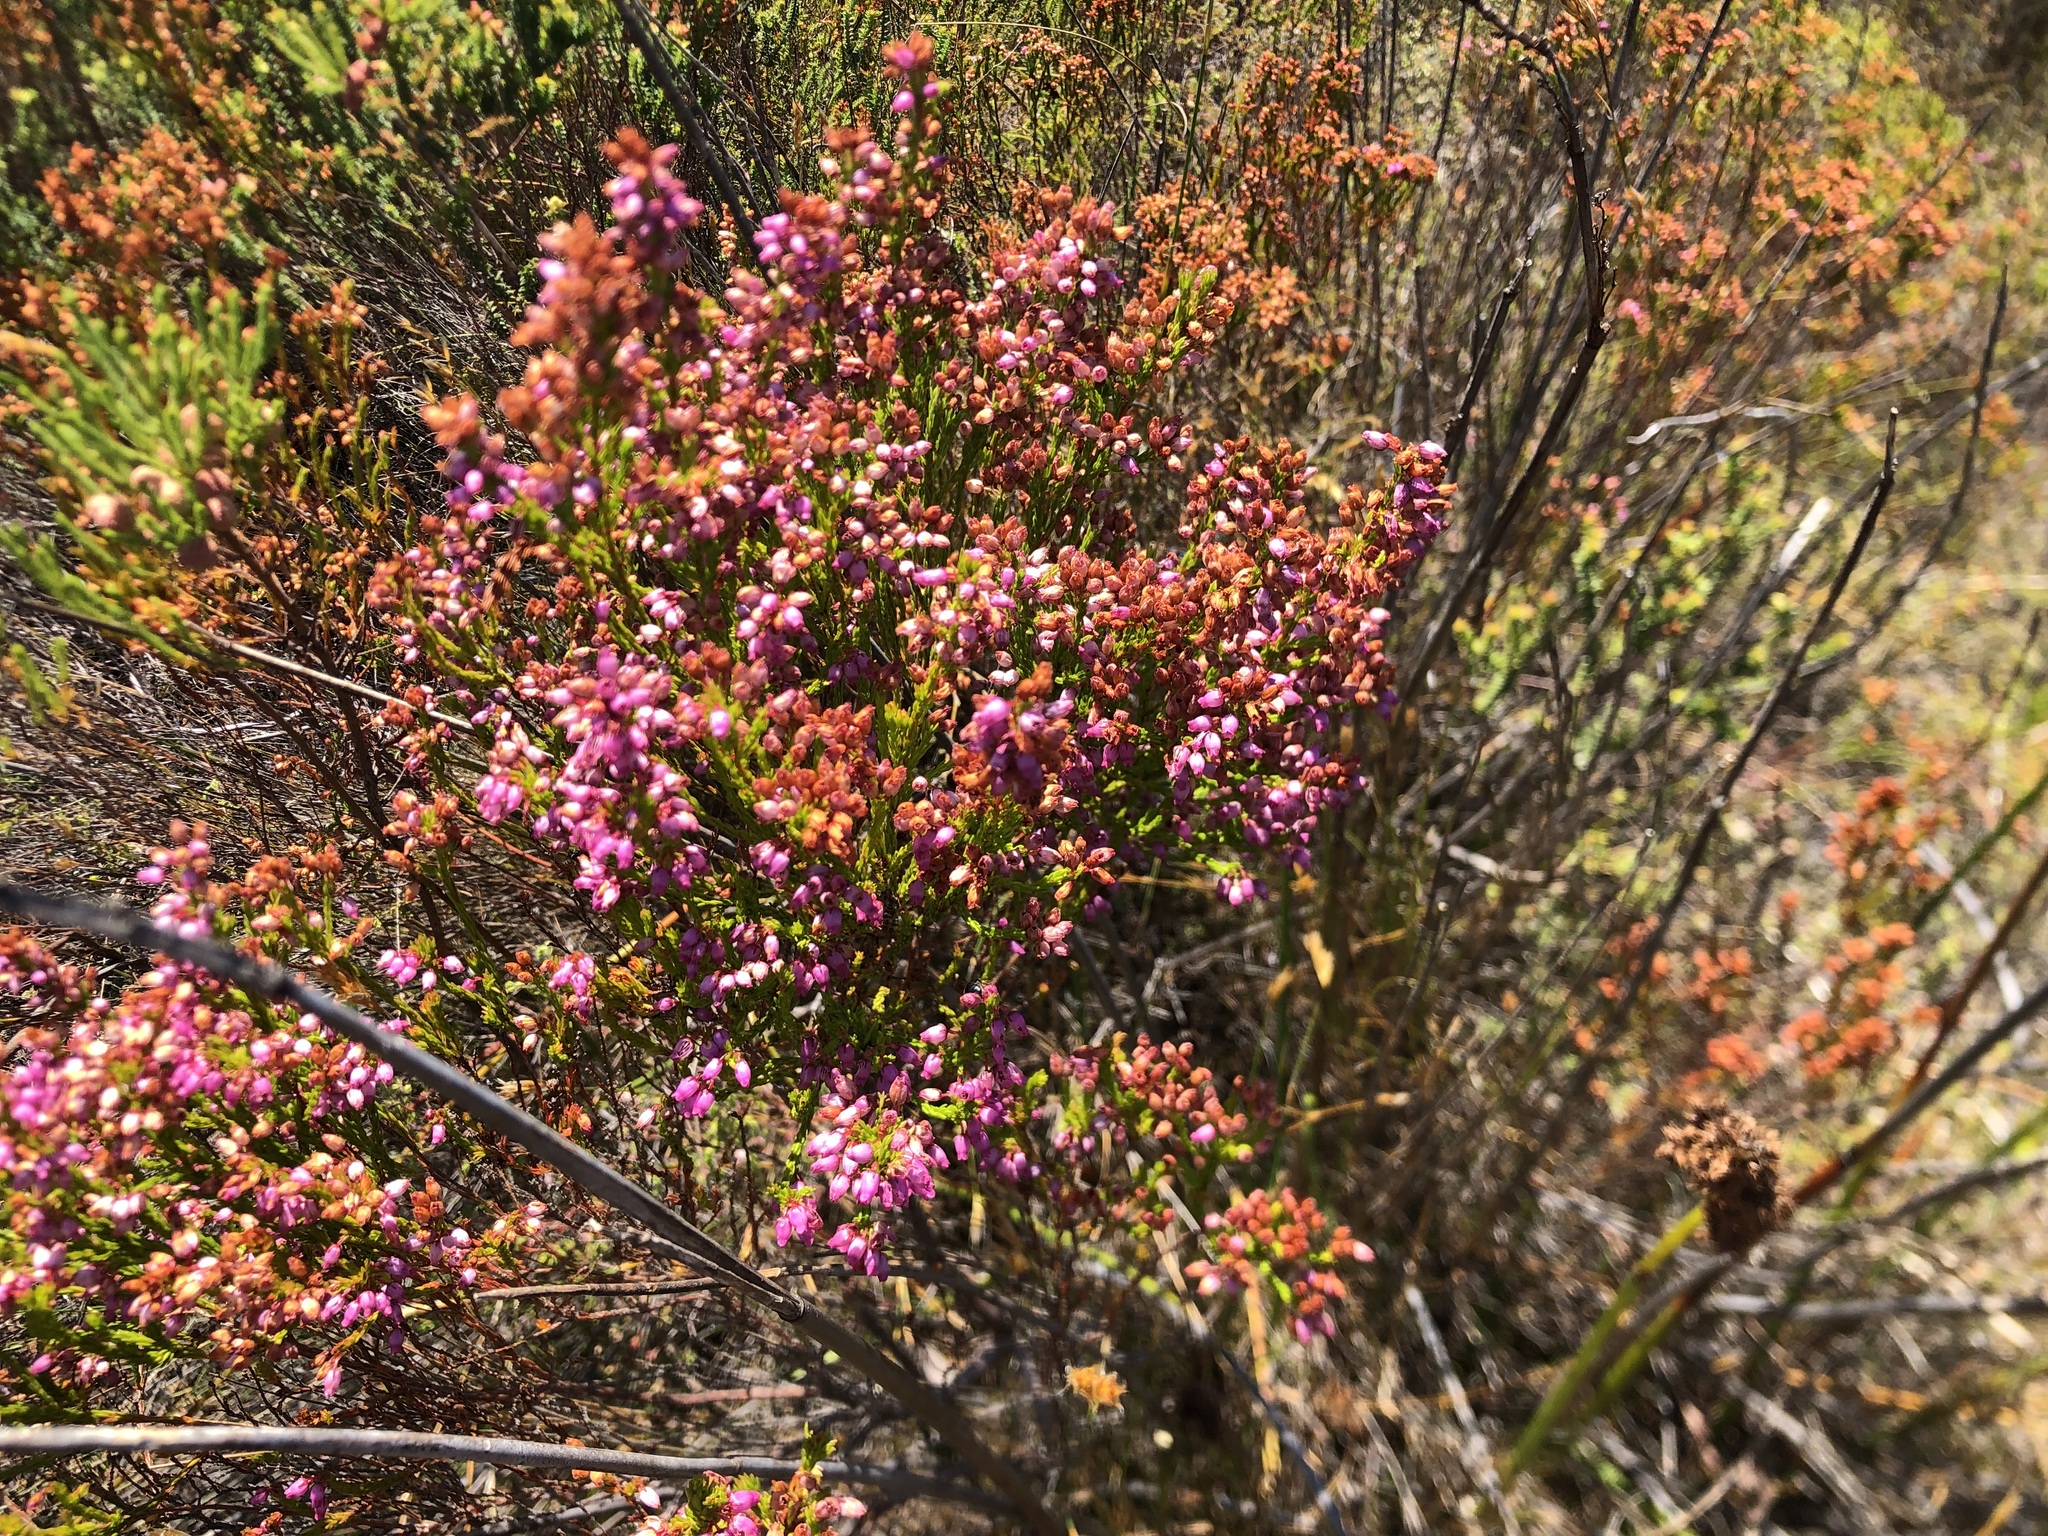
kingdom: Plantae
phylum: Tracheophyta
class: Magnoliopsida
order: Ericales
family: Ericaceae
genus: Erica
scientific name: Erica laeta
